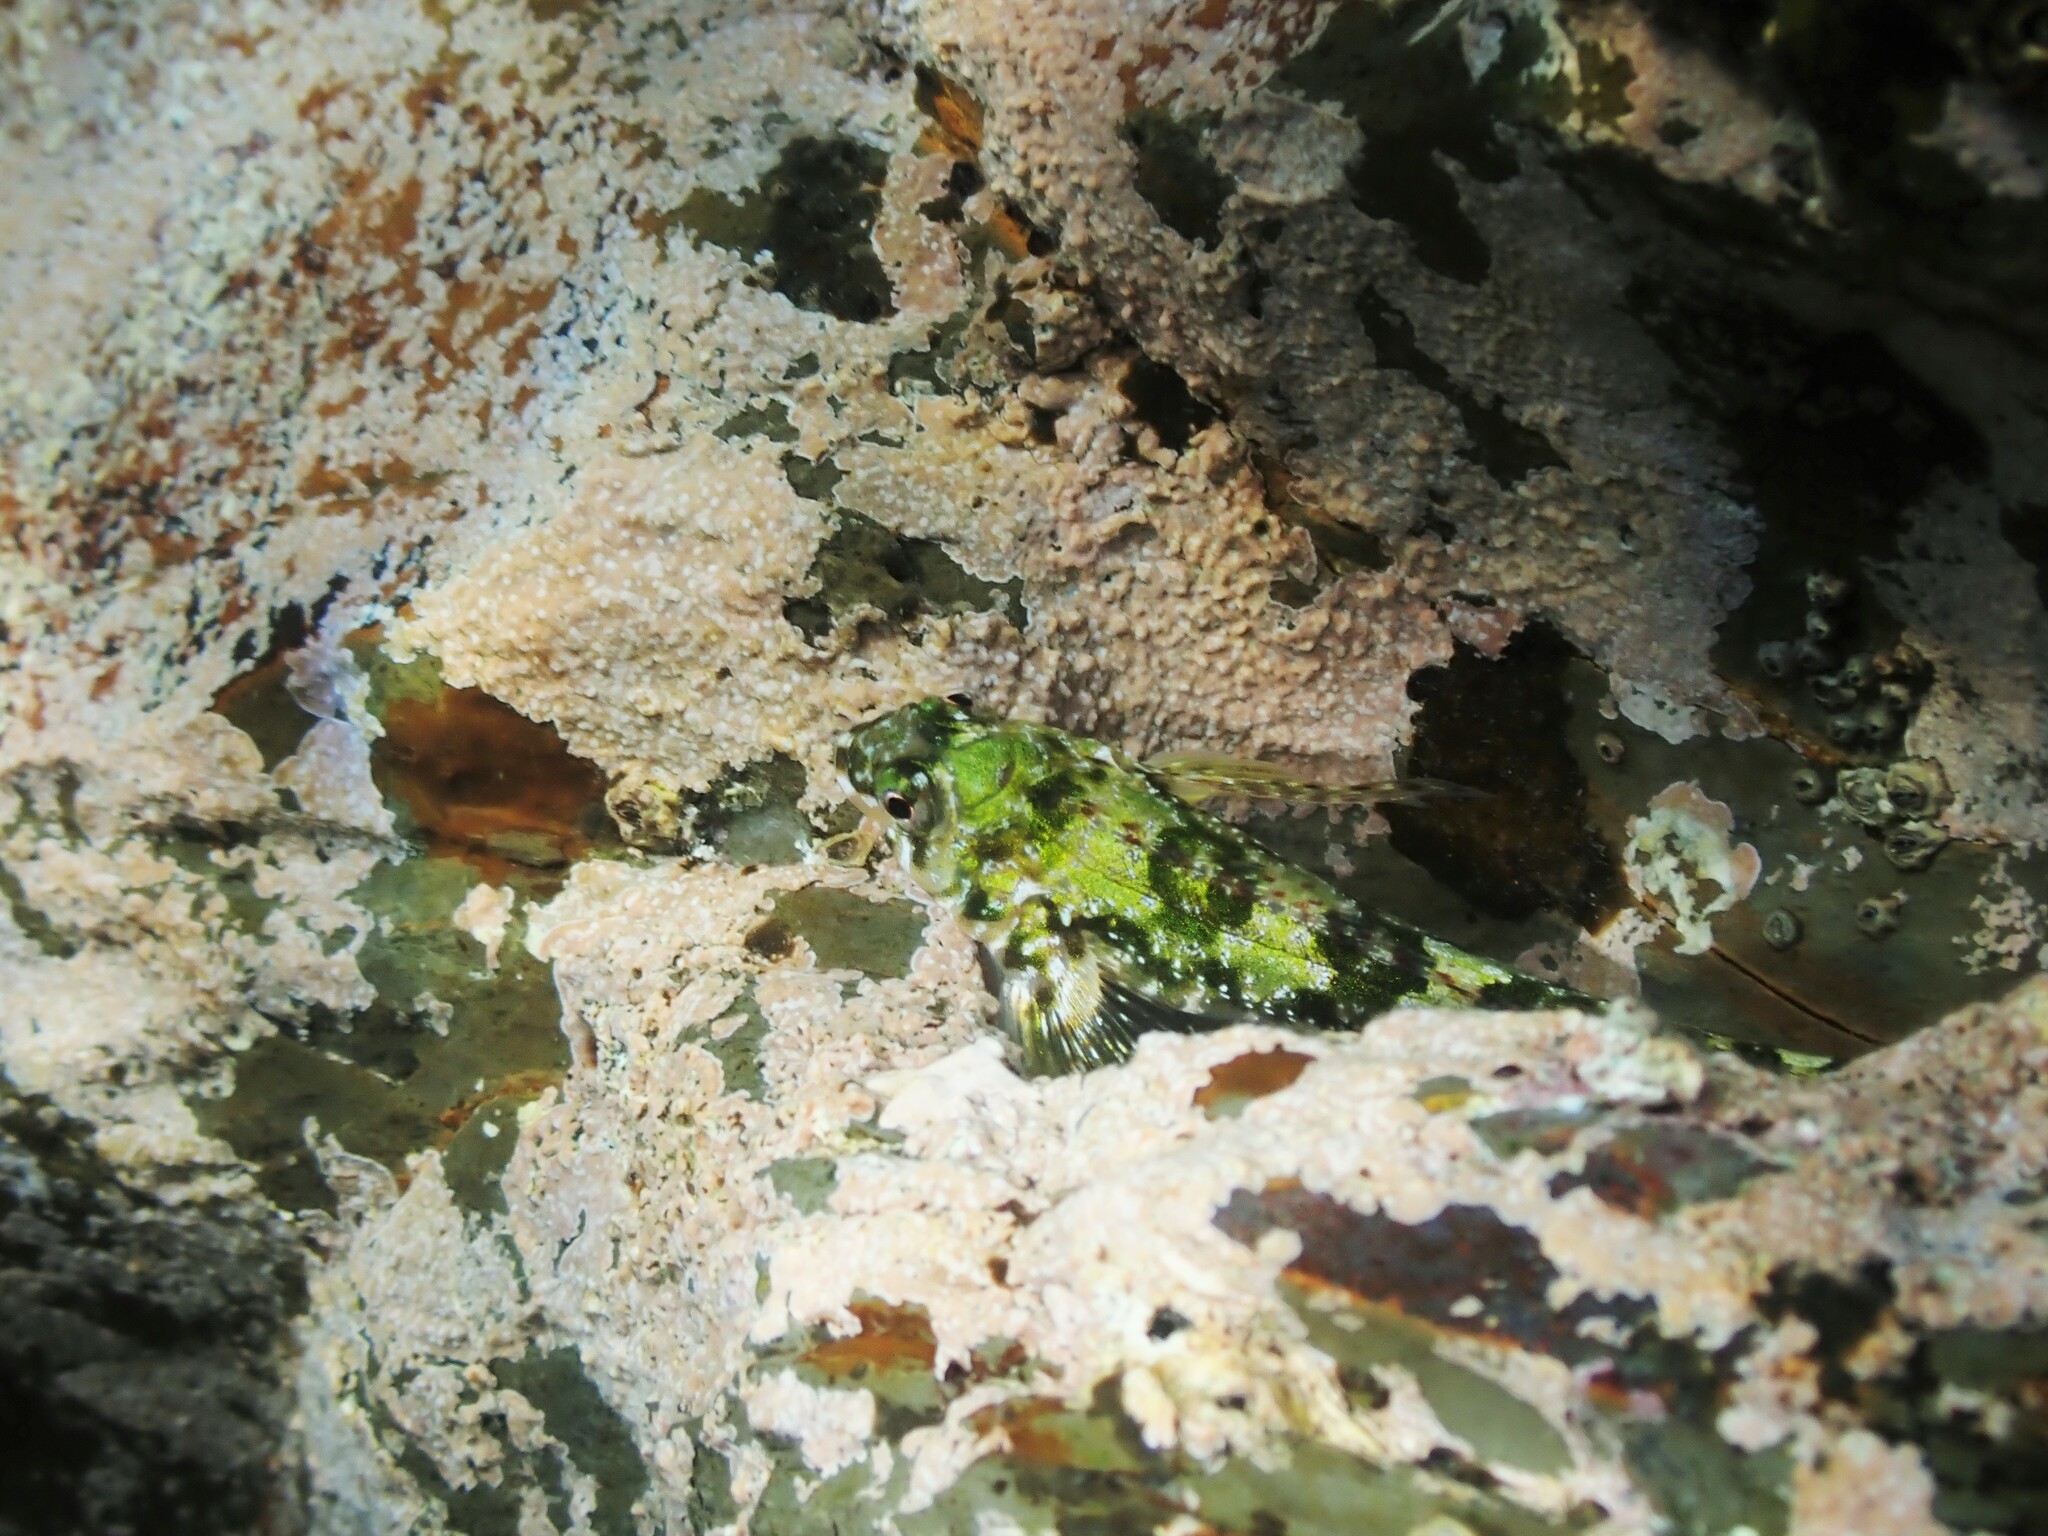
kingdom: Animalia
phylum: Chordata
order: Perciformes
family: Tripterygiidae
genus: Bellapiscis
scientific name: Bellapiscis lesleyae
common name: Mottled twister
